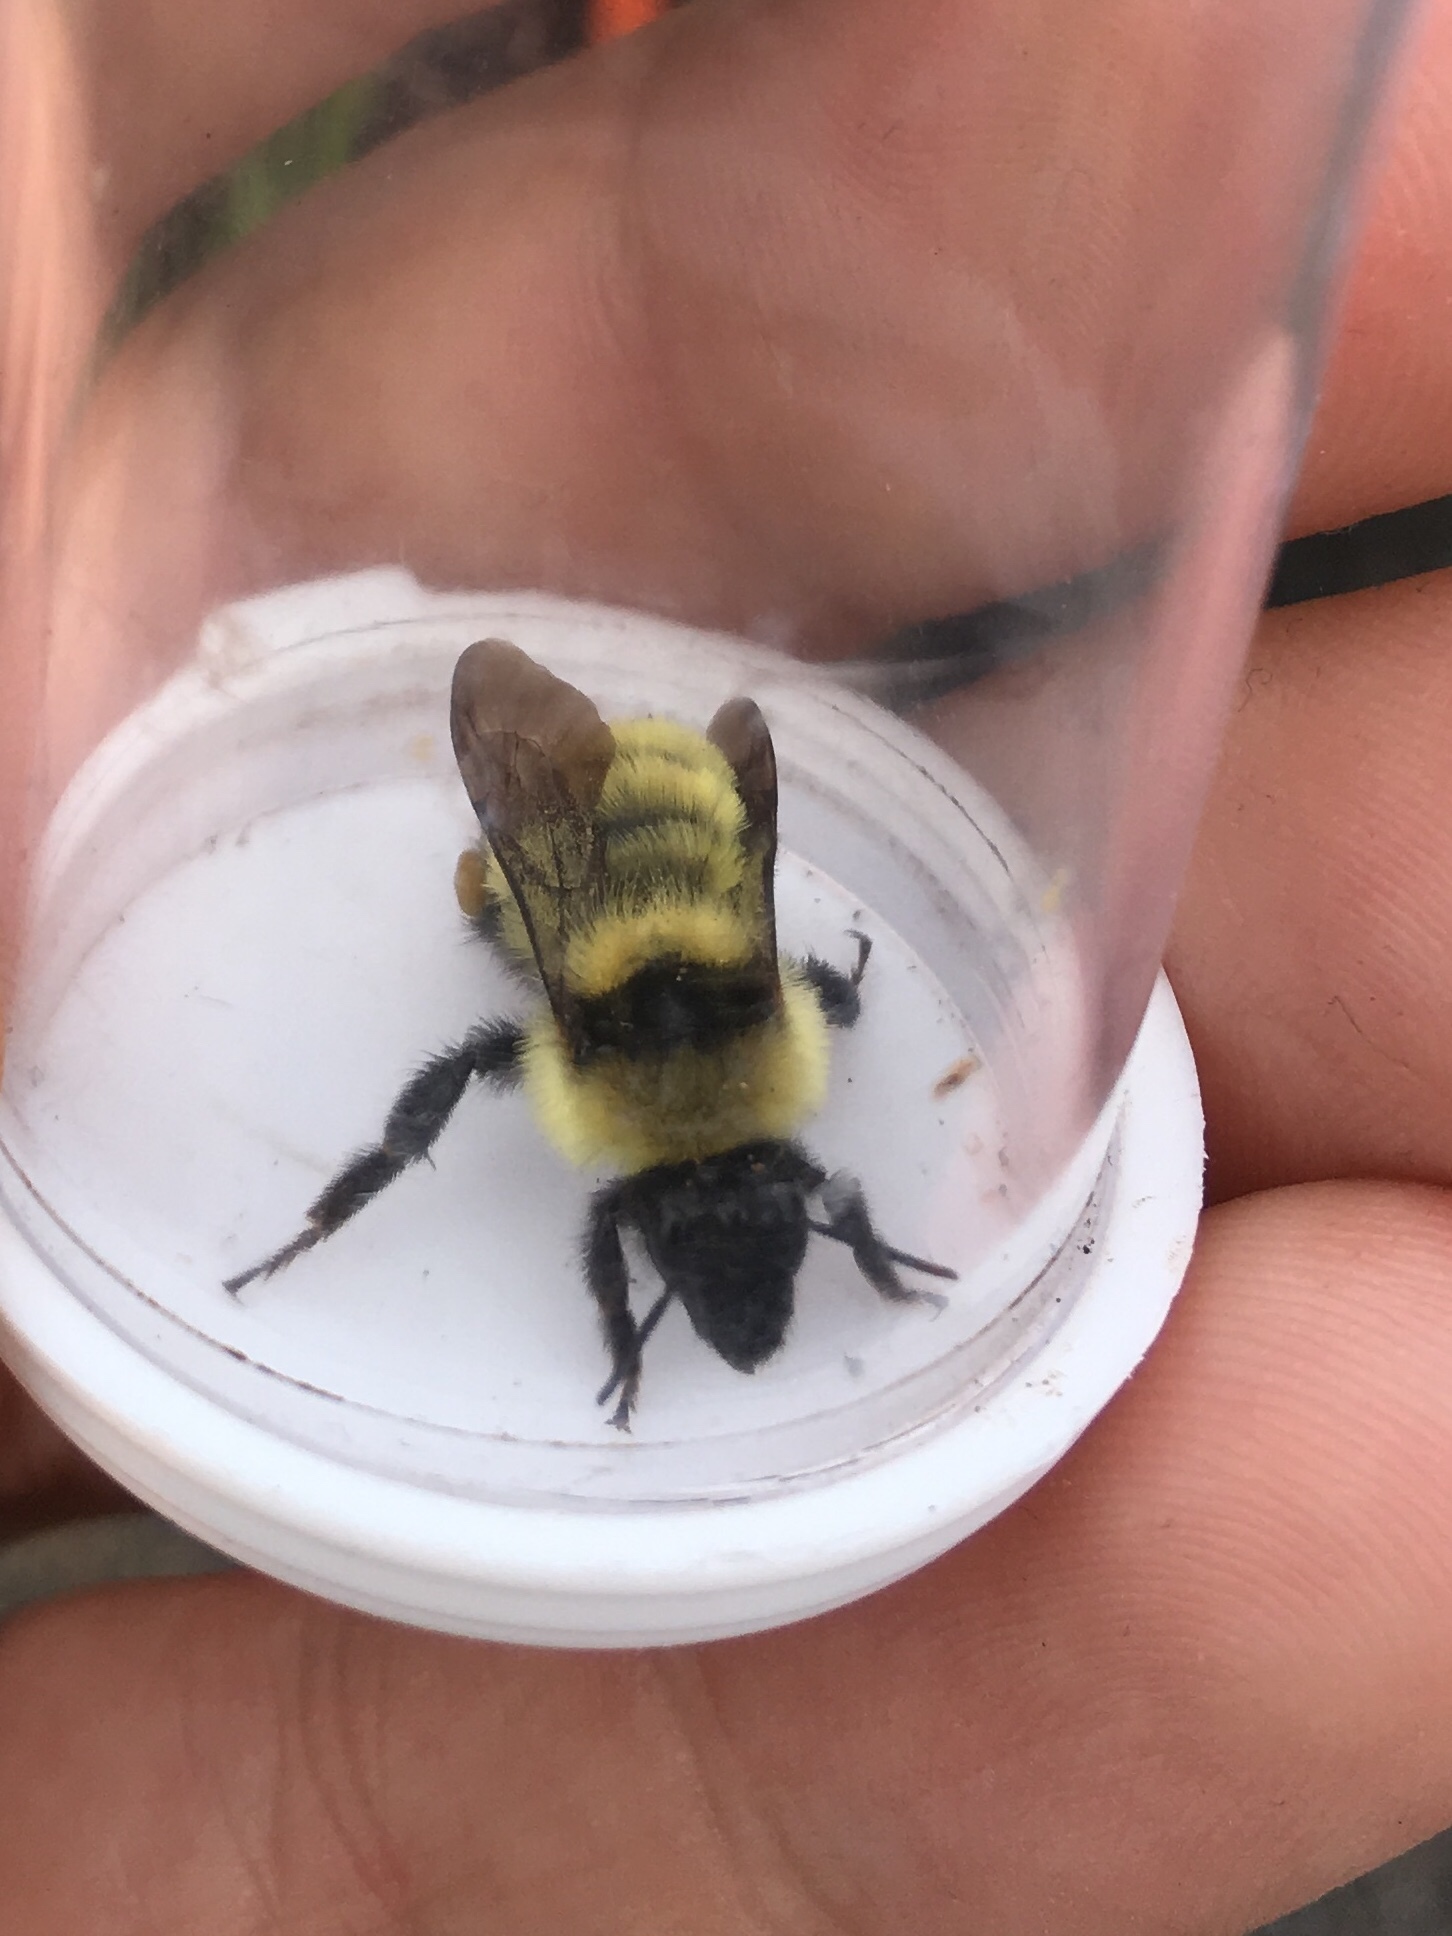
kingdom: Animalia
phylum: Arthropoda
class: Insecta
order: Hymenoptera
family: Apidae
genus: Bombus
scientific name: Bombus fervidus
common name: Yellow bumble bee
